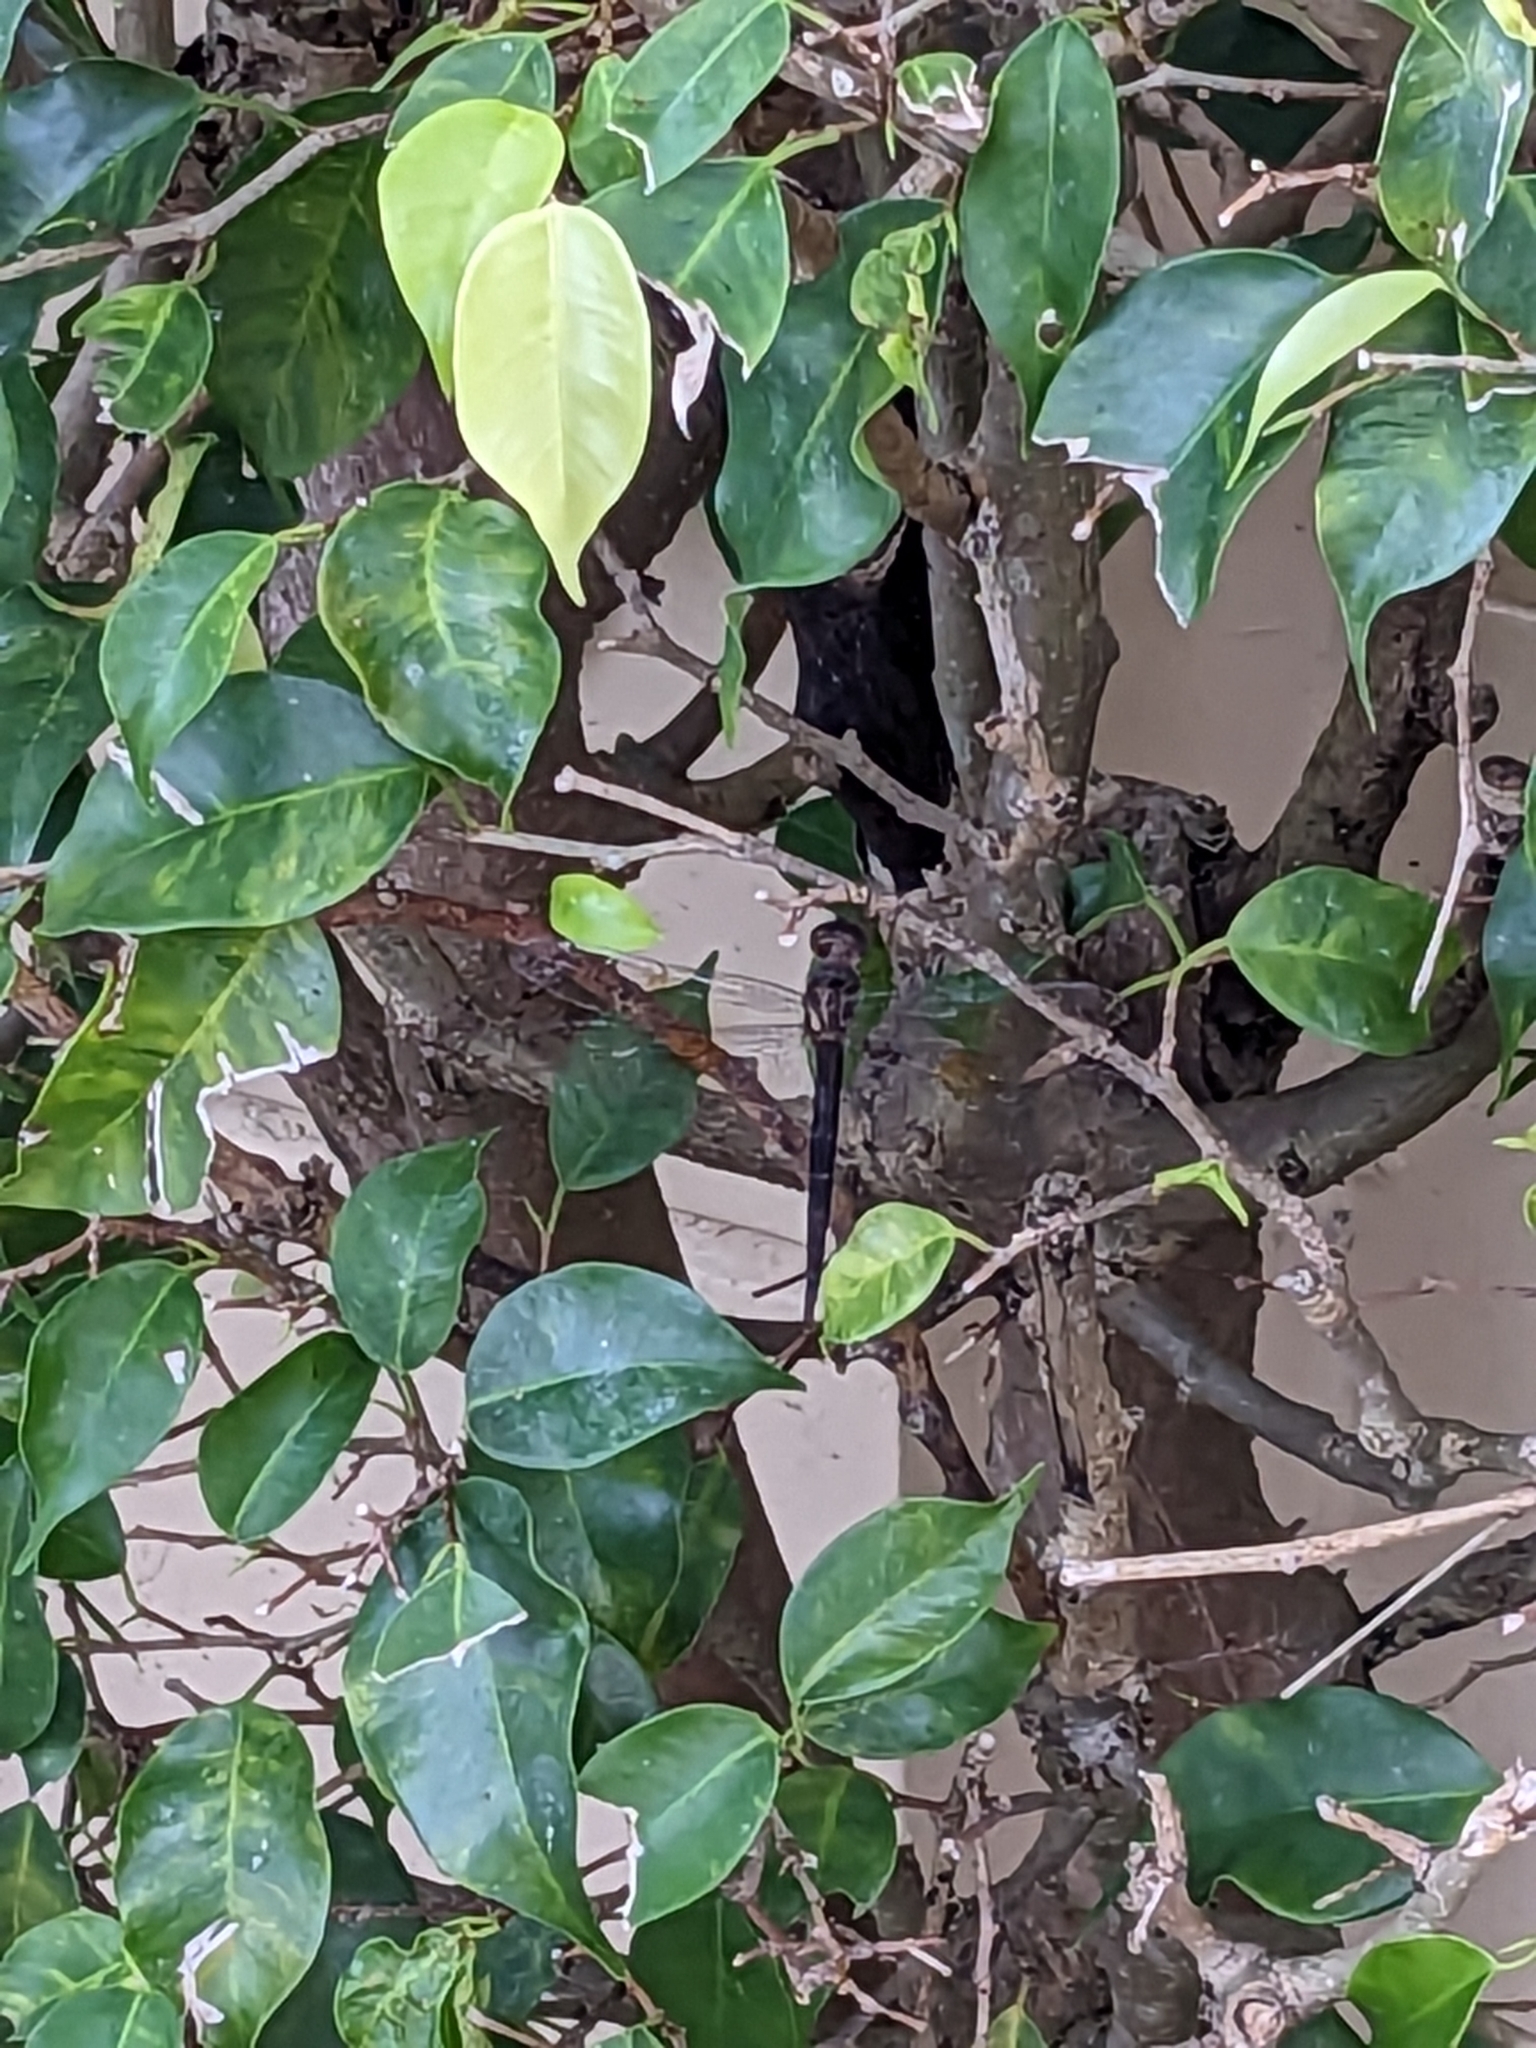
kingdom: Animalia
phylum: Arthropoda
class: Insecta
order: Odonata
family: Libellulidae
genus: Tholymis
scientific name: Tholymis citrina
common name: Evening skimmer
